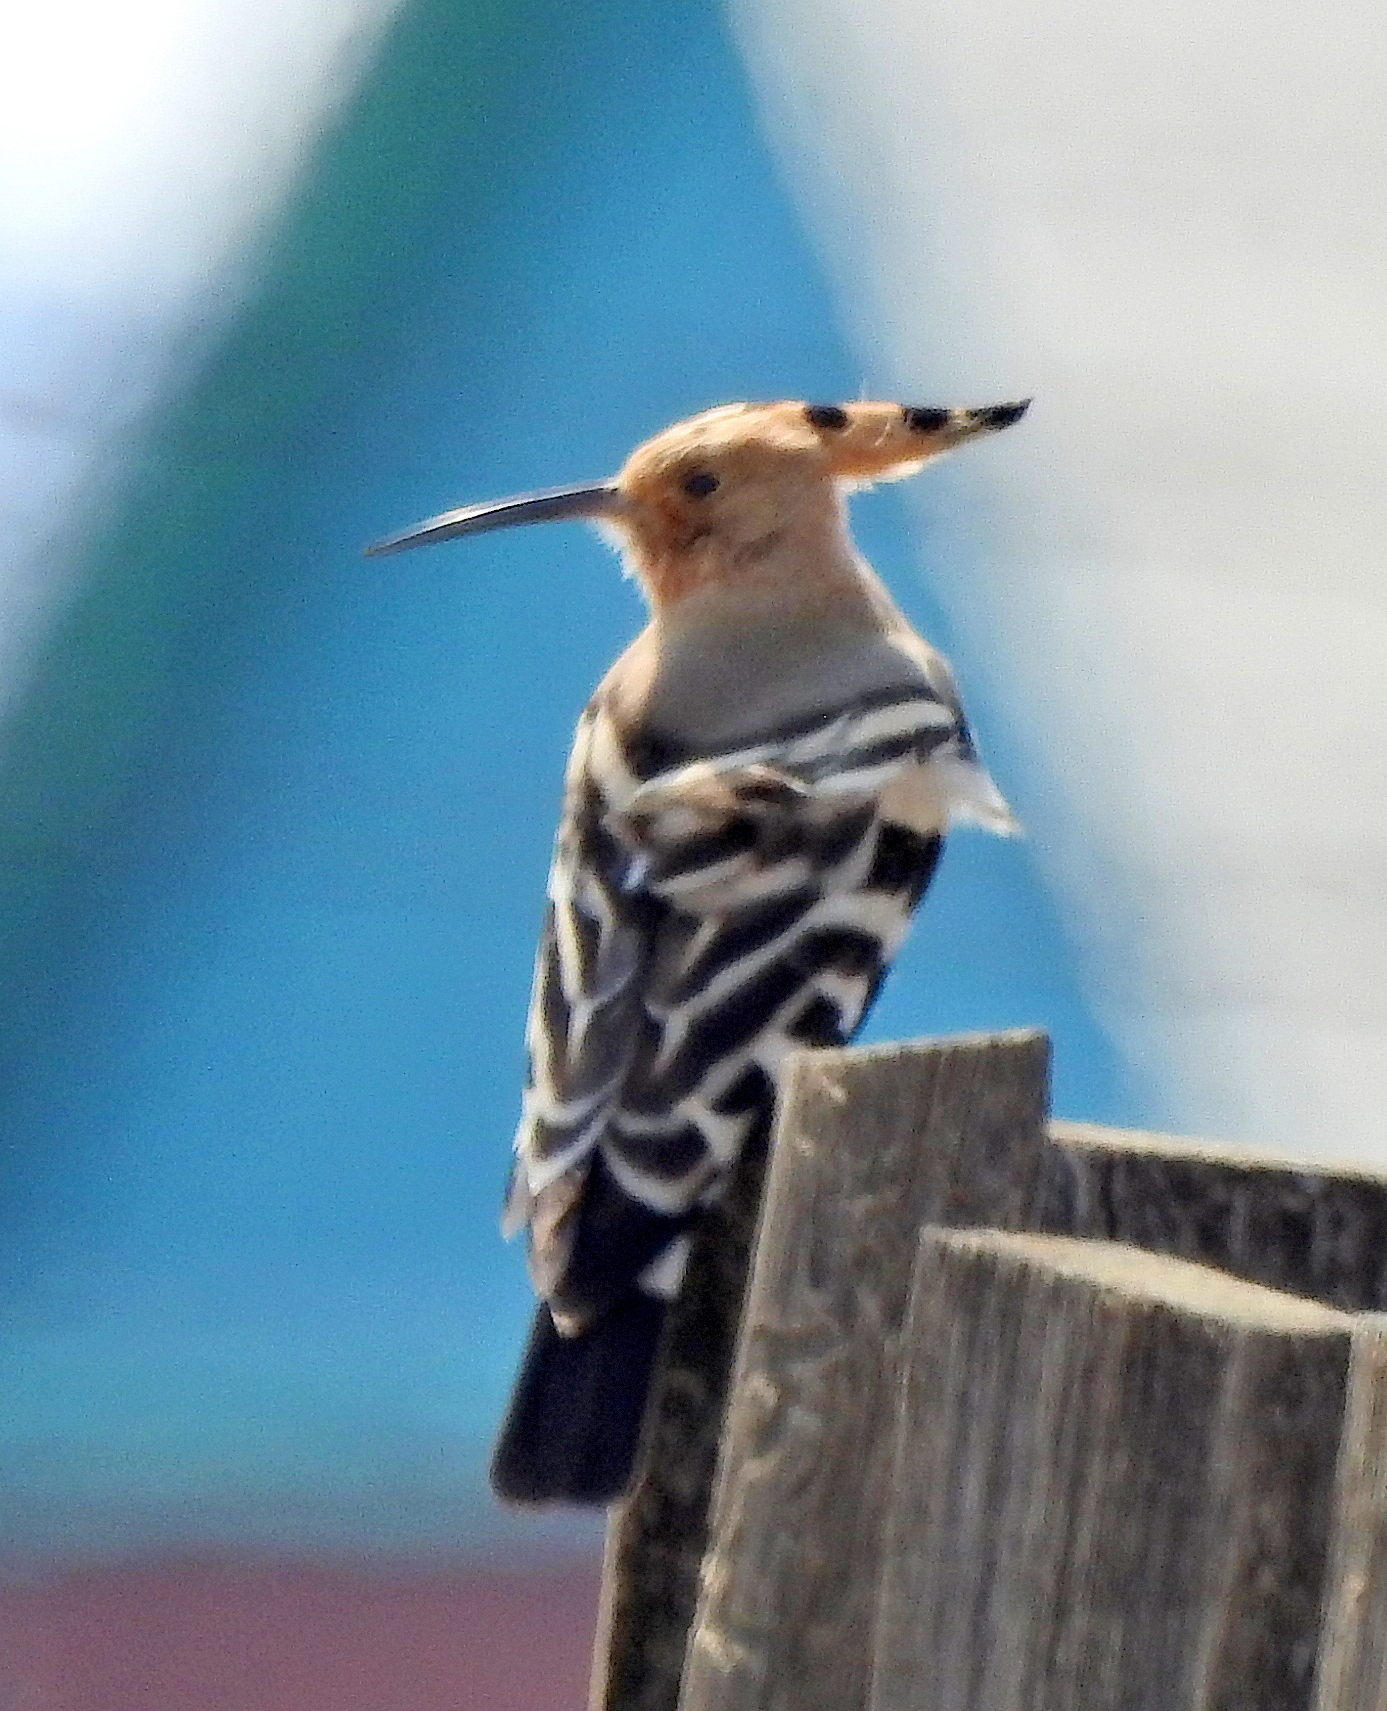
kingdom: Animalia
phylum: Chordata
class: Aves
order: Bucerotiformes
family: Upupidae
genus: Upupa
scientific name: Upupa epops
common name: Eurasian hoopoe
